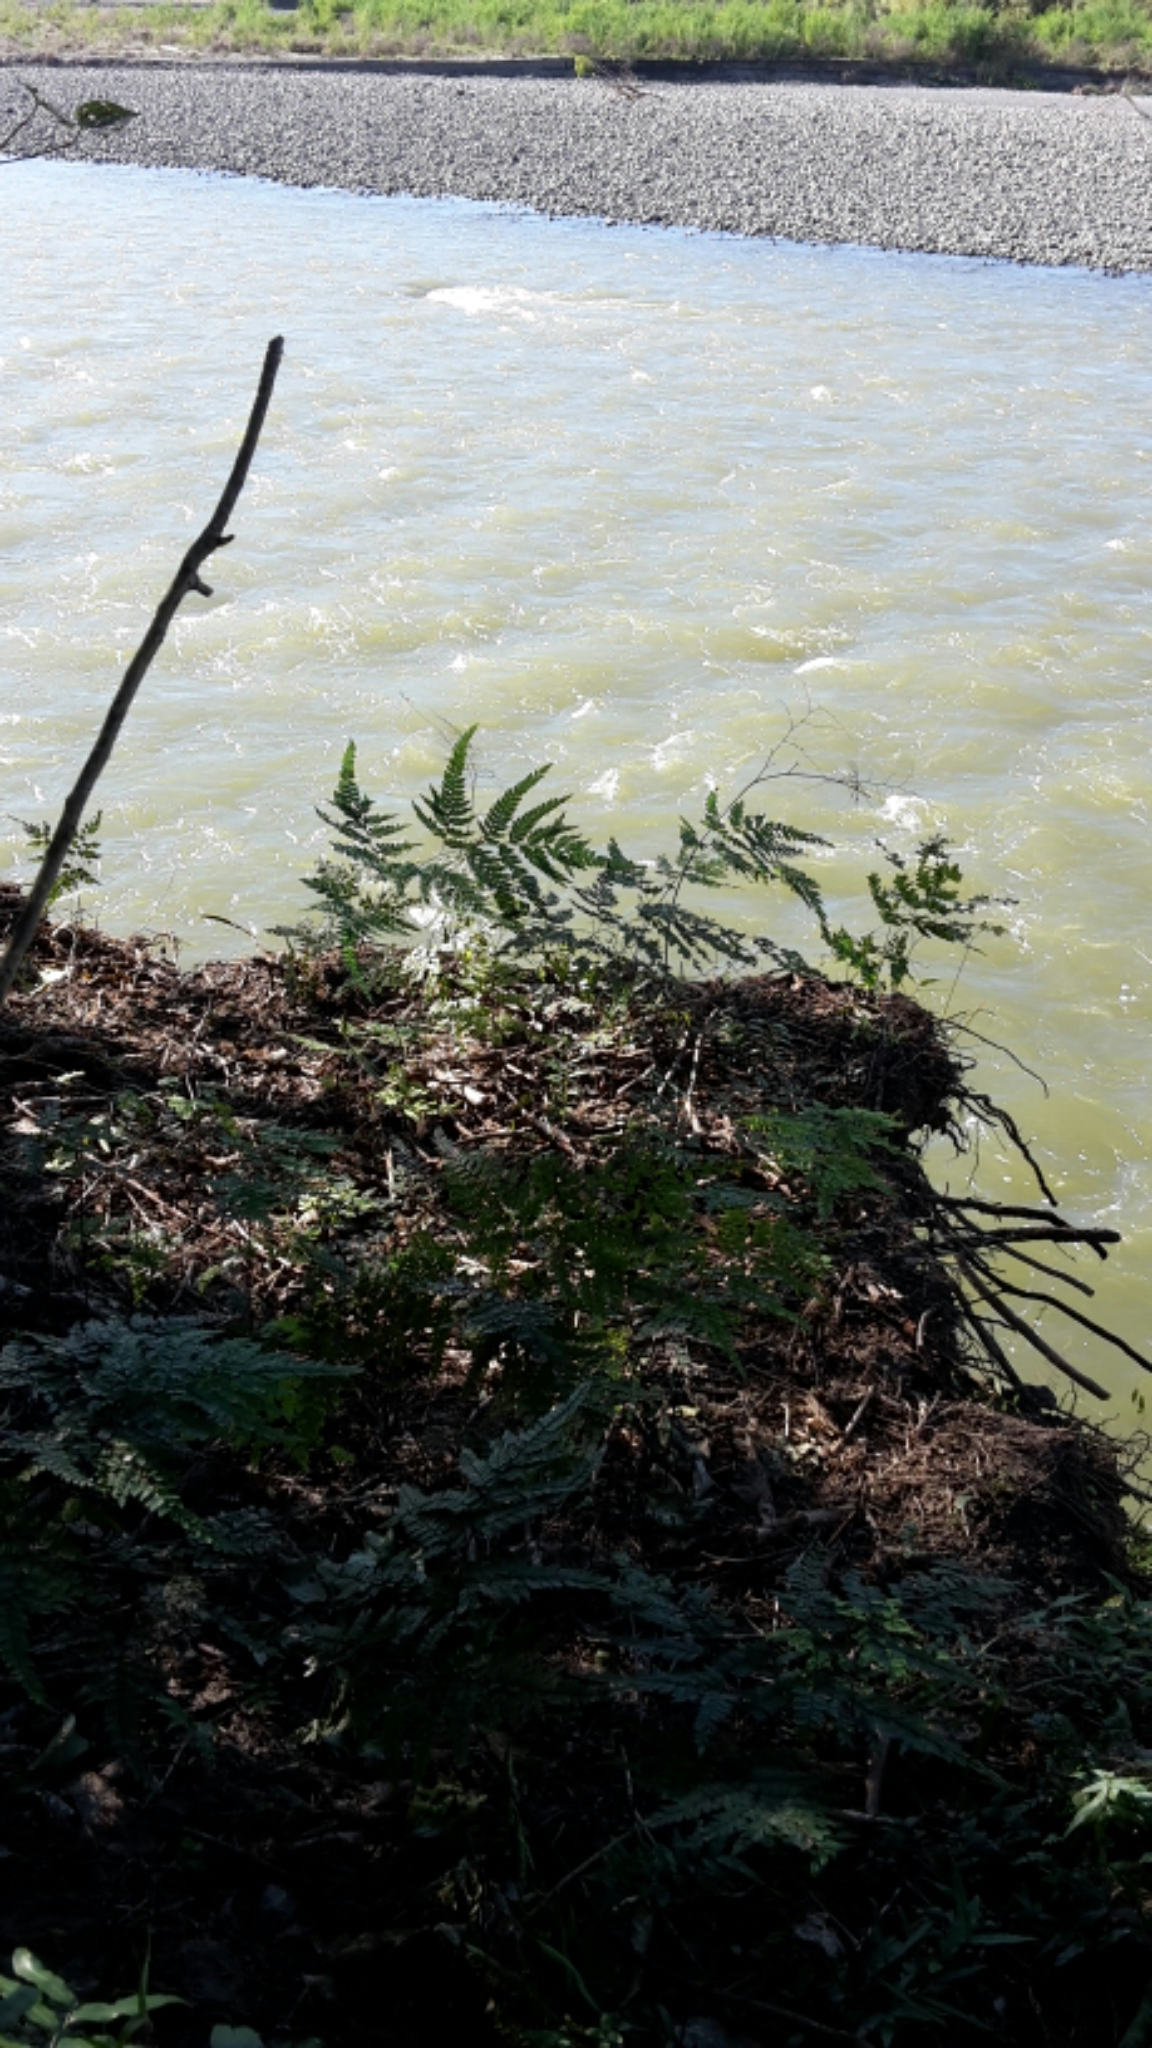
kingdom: Plantae
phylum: Tracheophyta
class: Polypodiopsida
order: Polypodiales
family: Pteridaceae
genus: Adiantum
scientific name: Adiantum formosum
